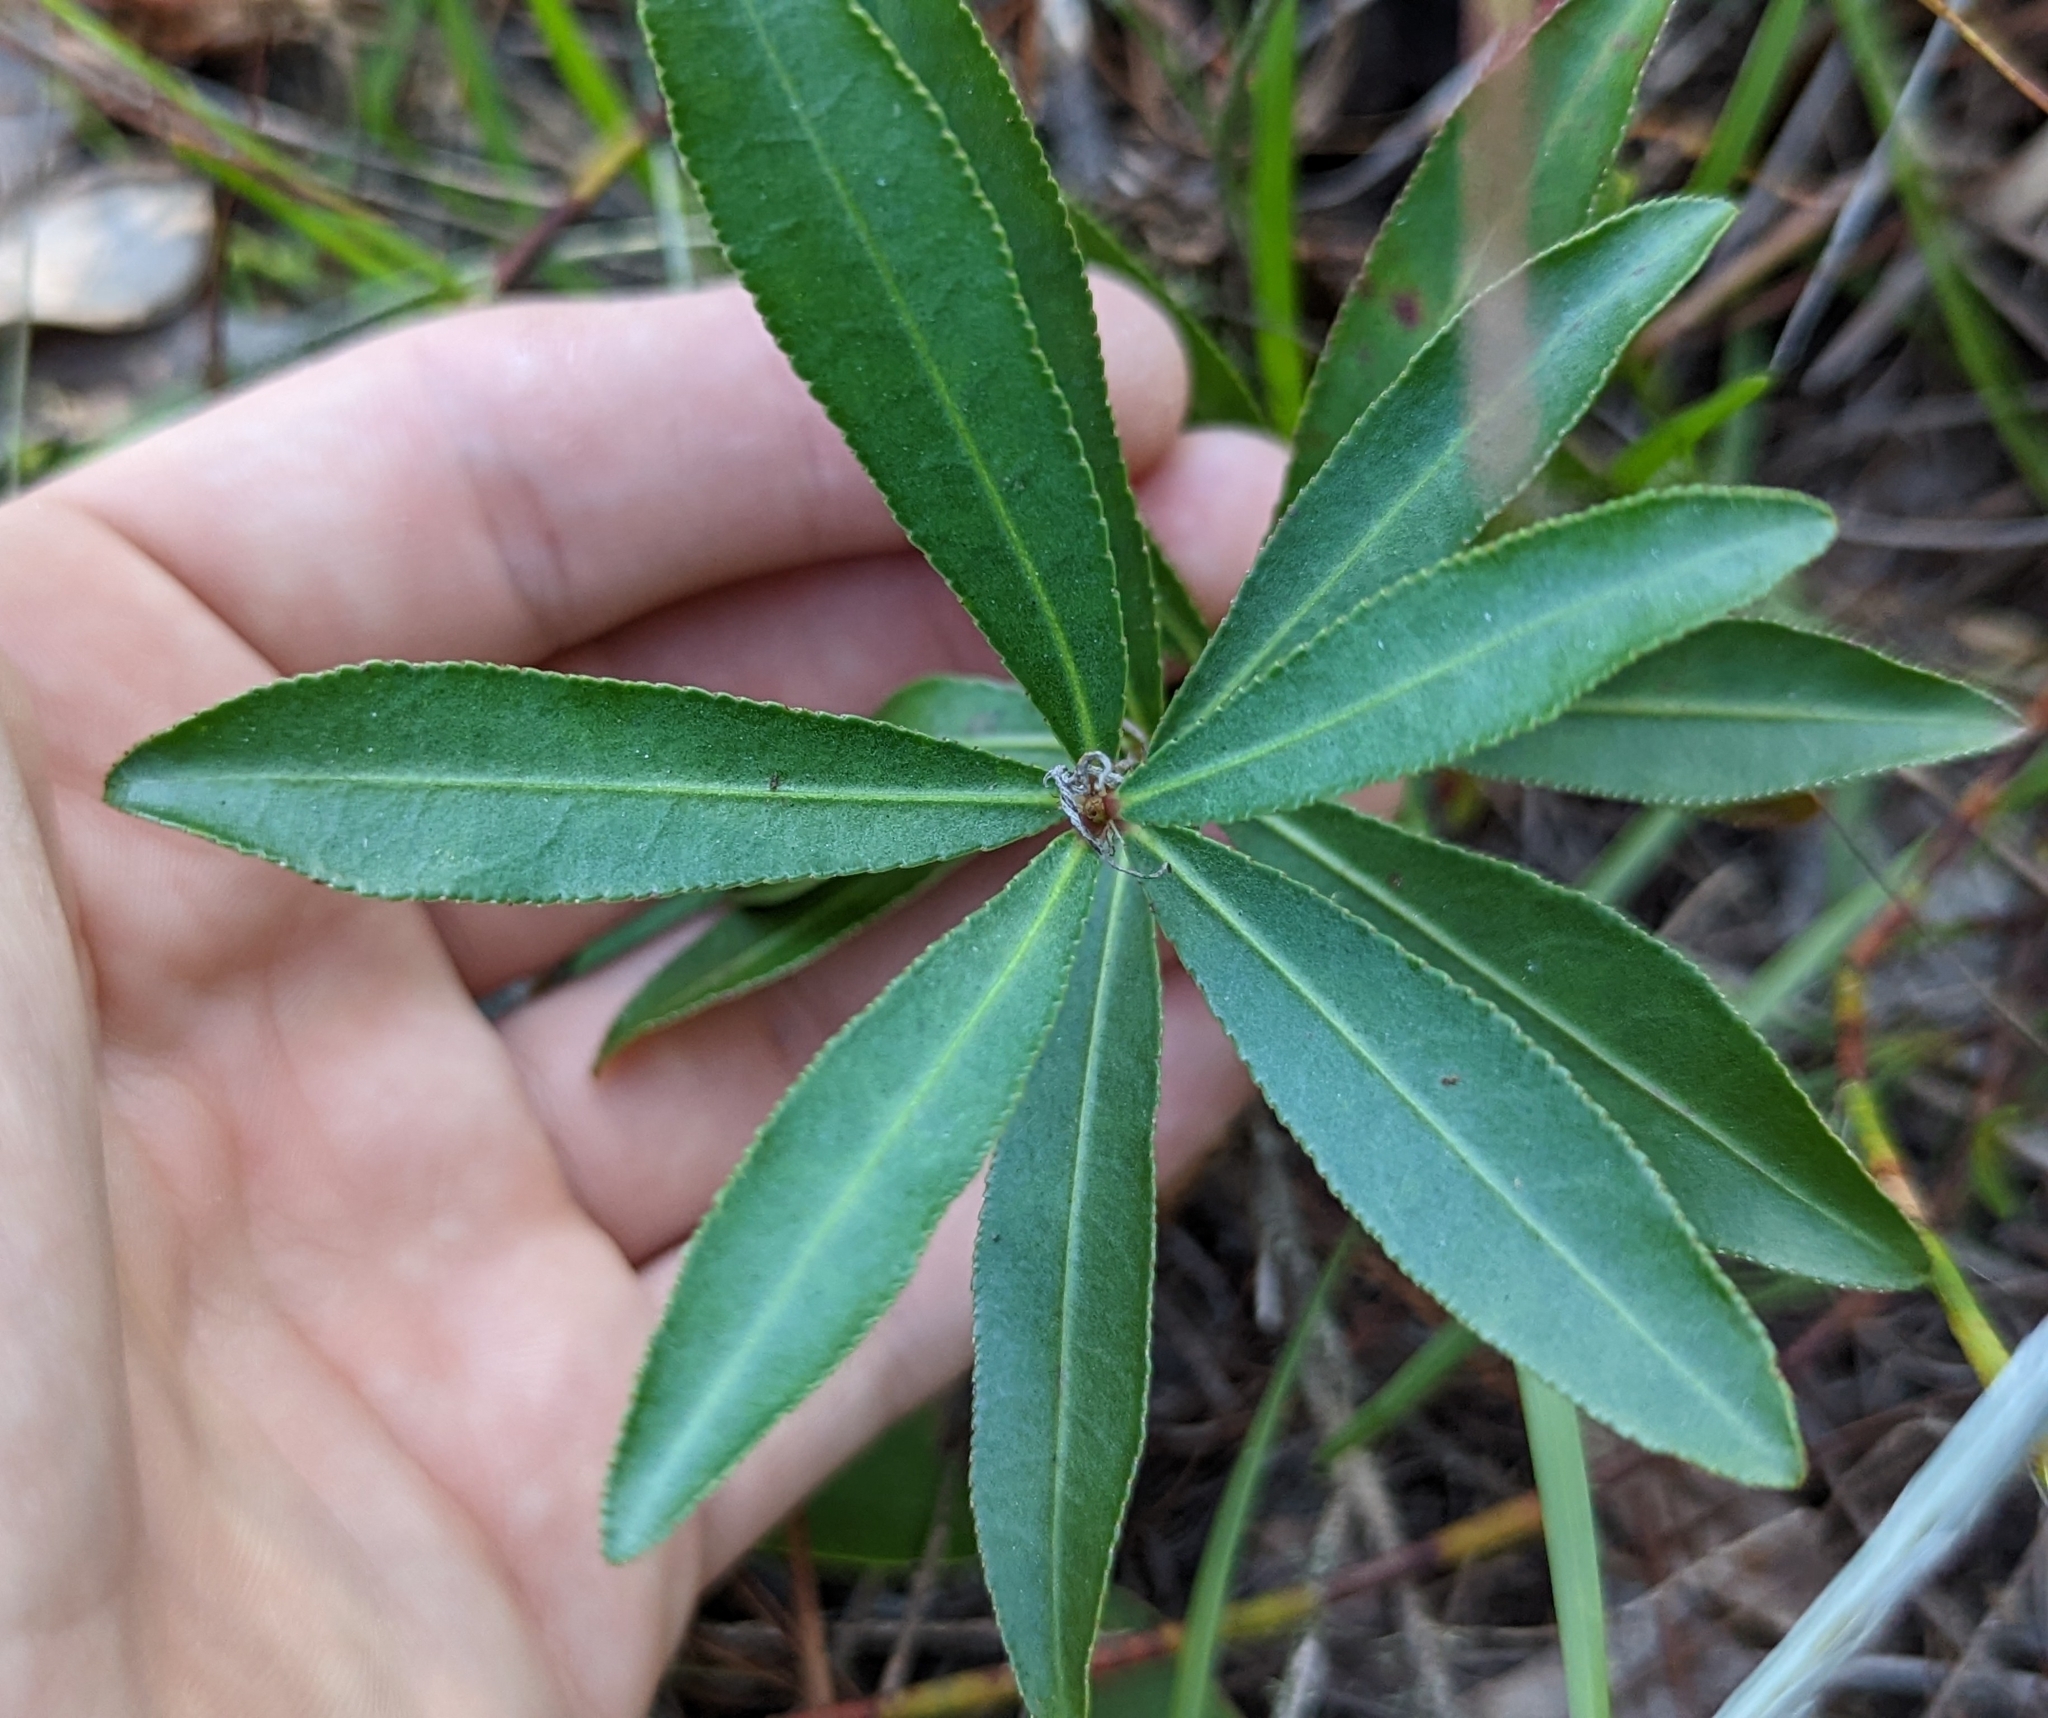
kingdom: Plantae
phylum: Tracheophyta
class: Magnoliopsida
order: Malpighiales
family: Euphorbiaceae
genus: Stillingia
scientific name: Stillingia sylvatica
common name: Queen's-delight
